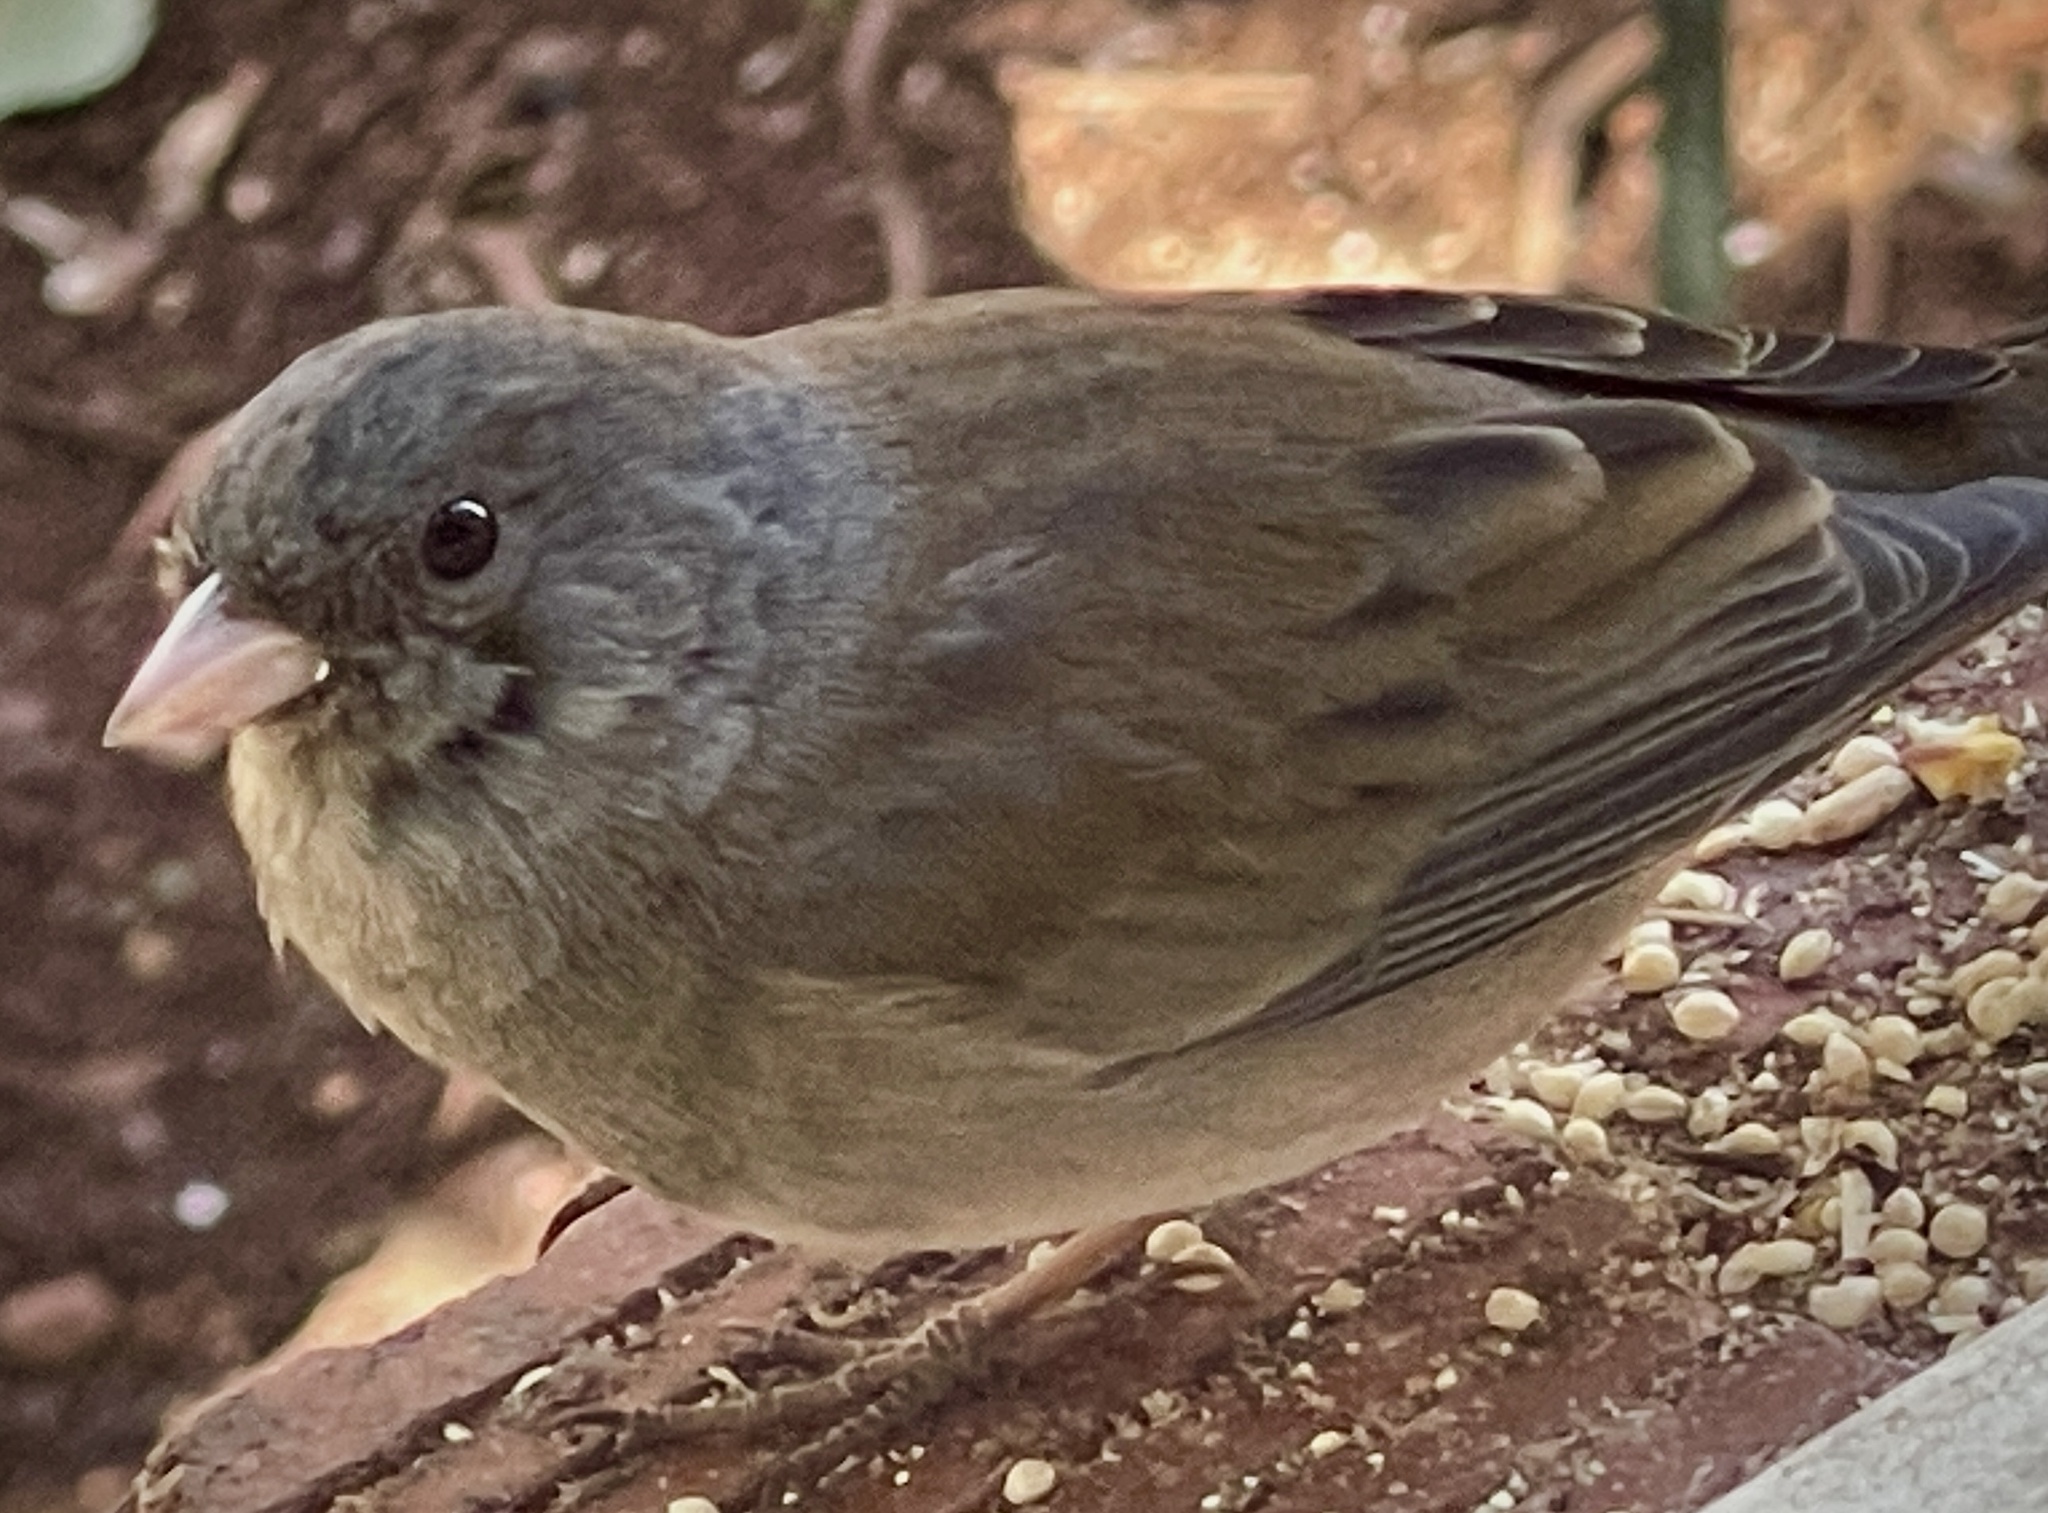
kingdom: Animalia
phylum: Chordata
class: Aves
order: Passeriformes
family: Passerellidae
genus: Junco
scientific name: Junco hyemalis
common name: Dark-eyed junco
